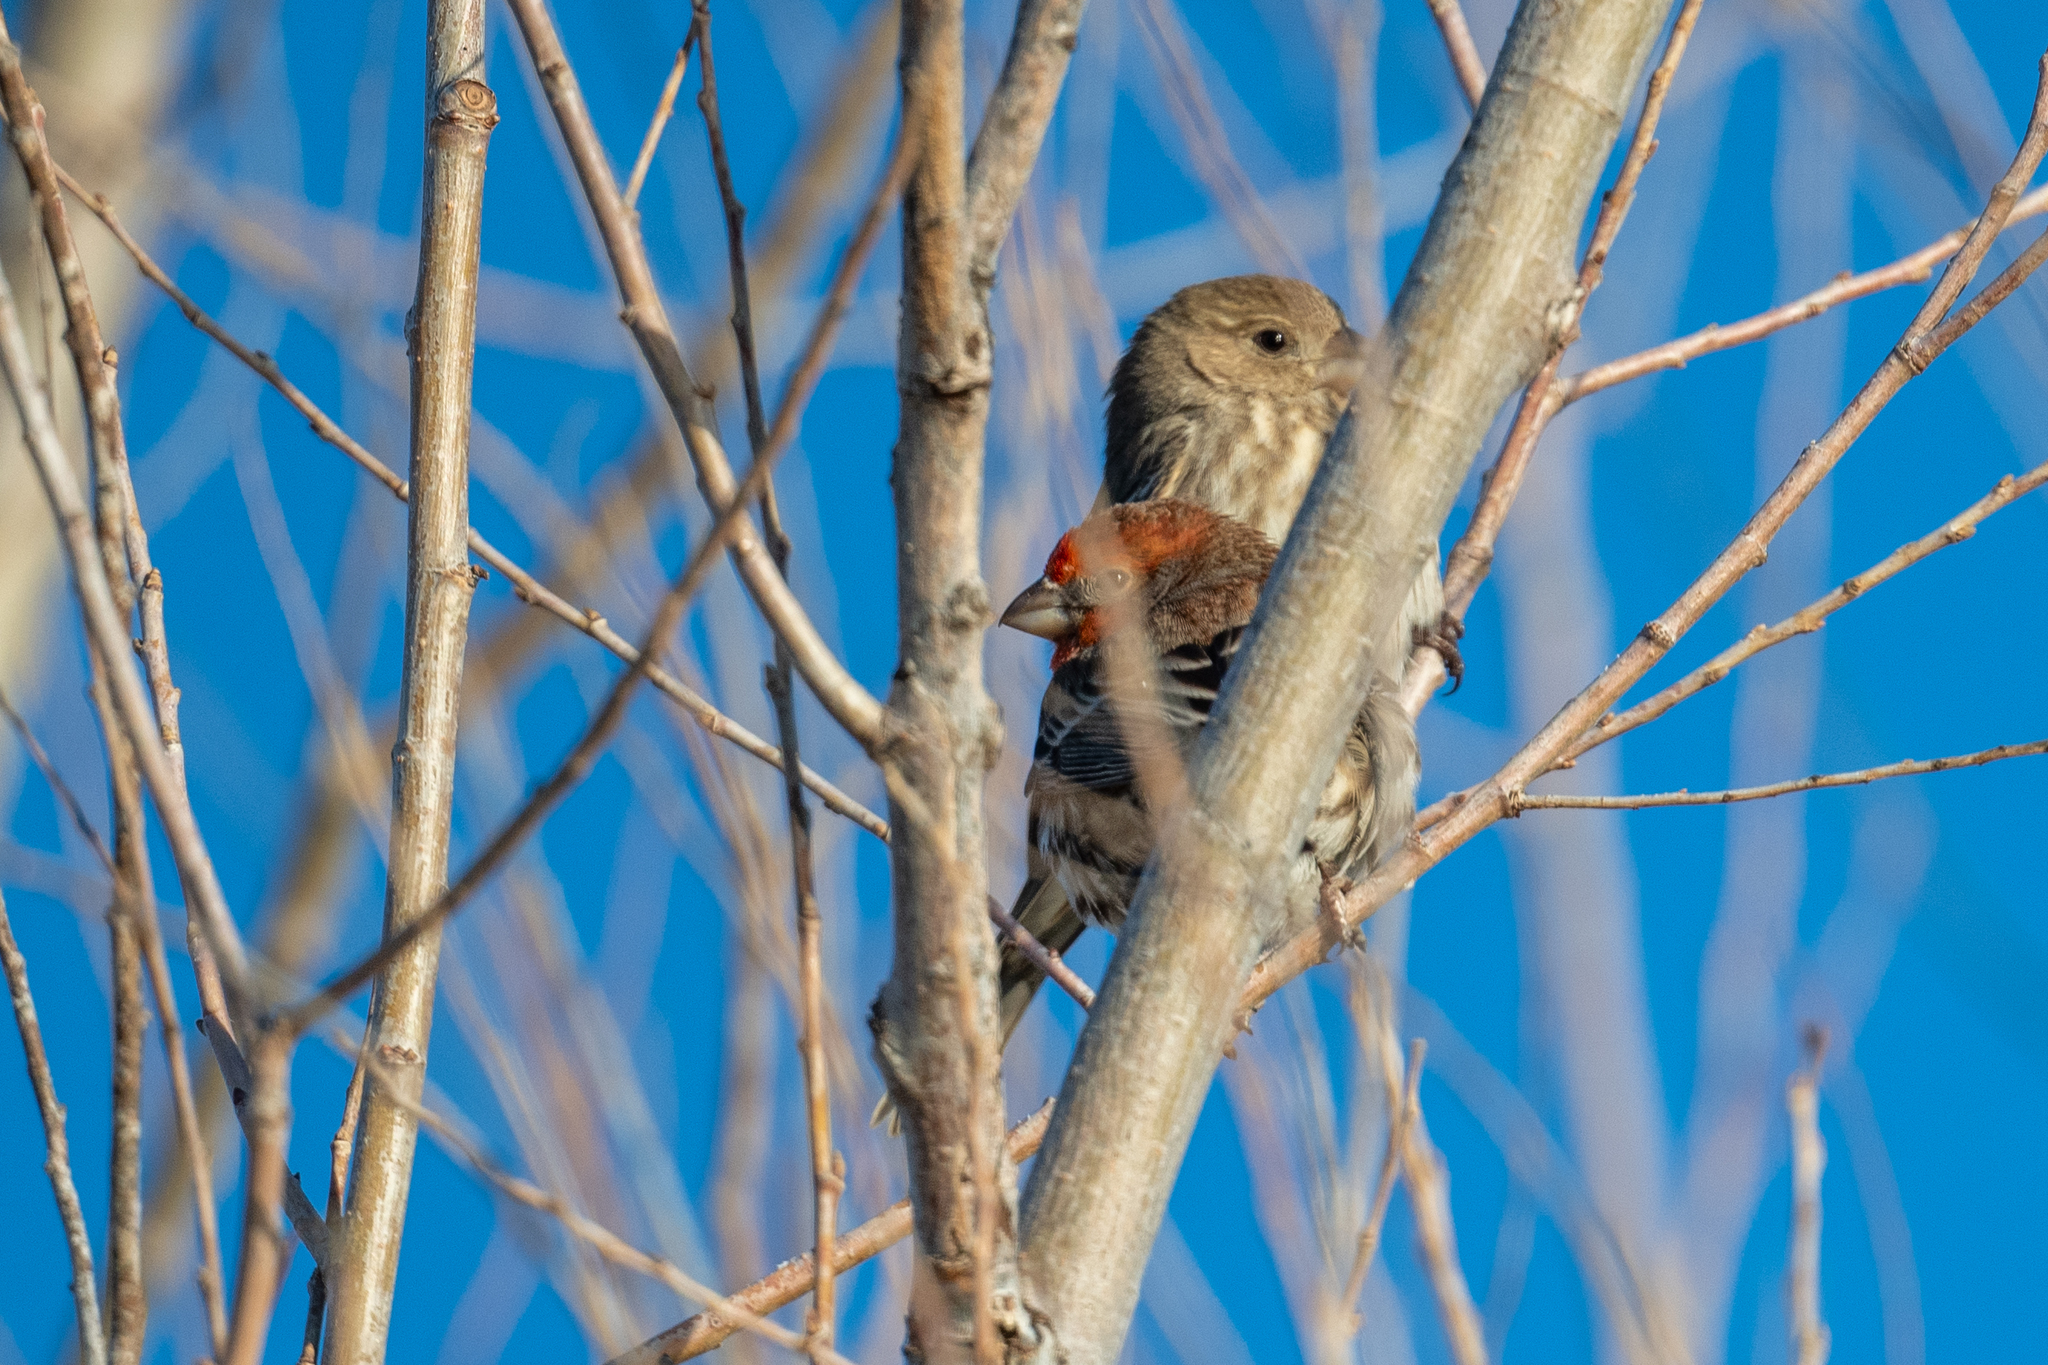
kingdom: Animalia
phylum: Chordata
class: Aves
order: Passeriformes
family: Fringillidae
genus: Haemorhous
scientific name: Haemorhous mexicanus
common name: House finch
